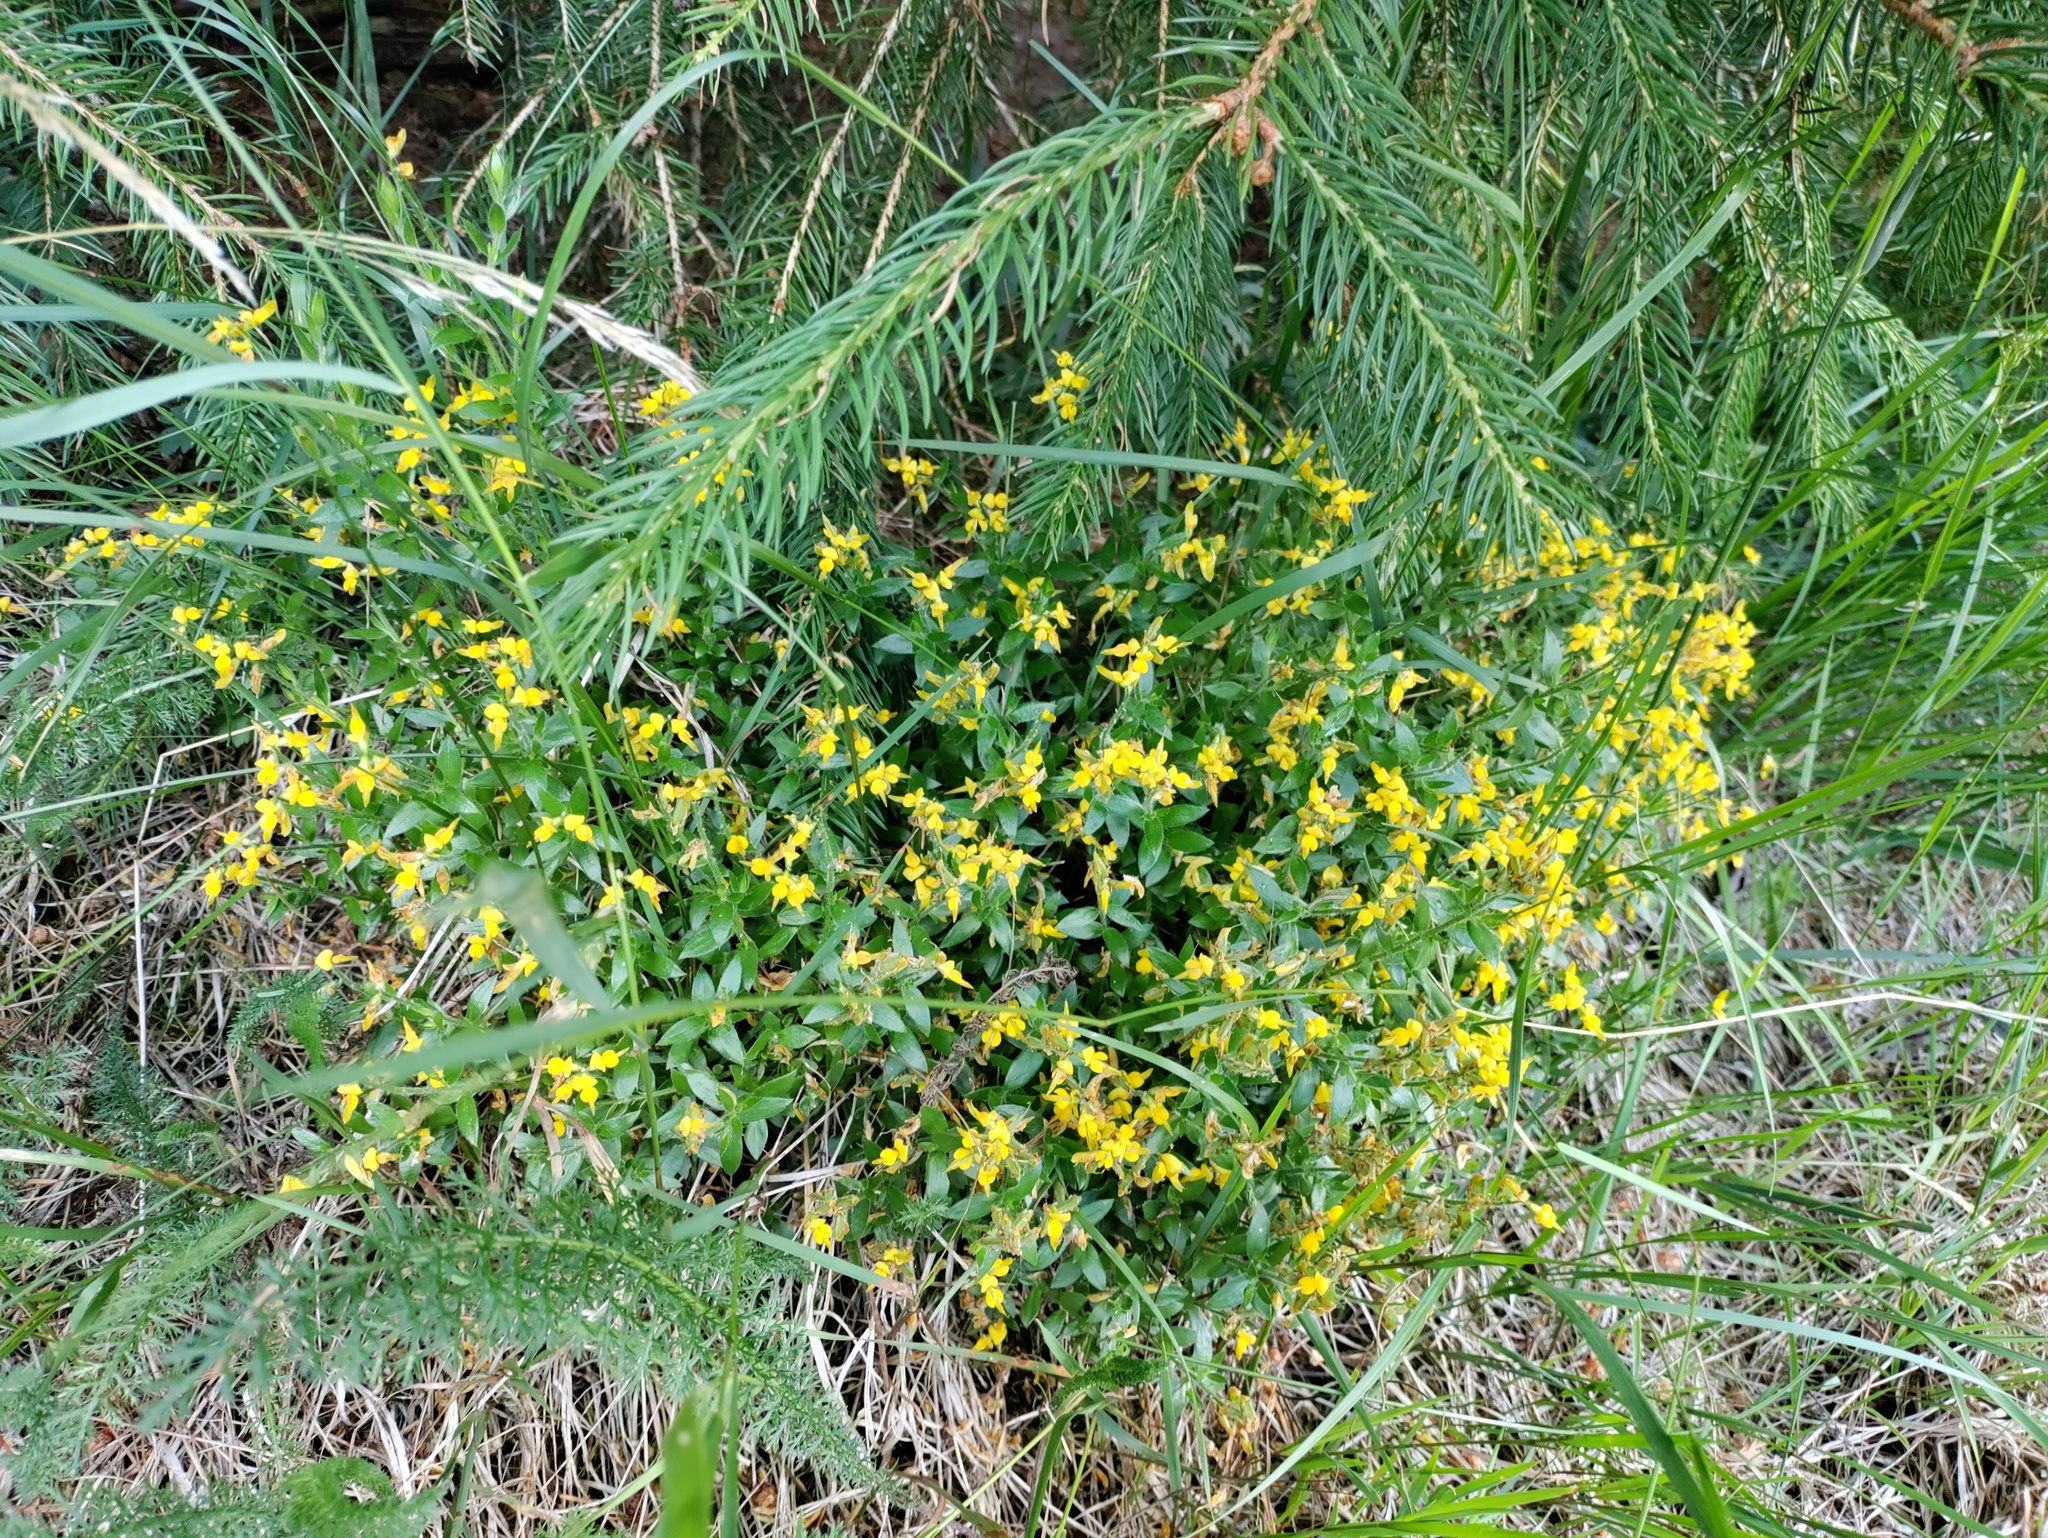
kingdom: Plantae
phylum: Tracheophyta
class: Magnoliopsida
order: Fabales
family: Fabaceae
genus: Genista
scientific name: Genista germanica
